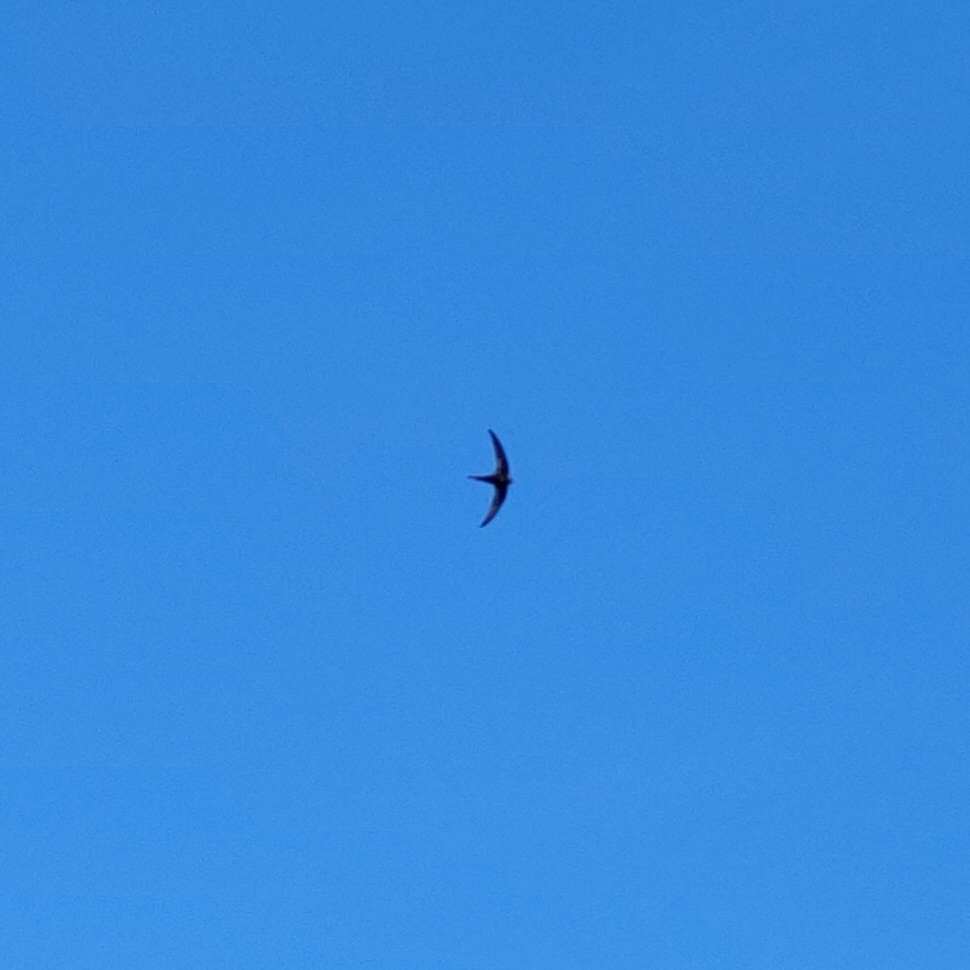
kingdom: Animalia
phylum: Chordata
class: Aves
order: Apodiformes
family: Apodidae
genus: Apus
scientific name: Apus apus
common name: Common swift
